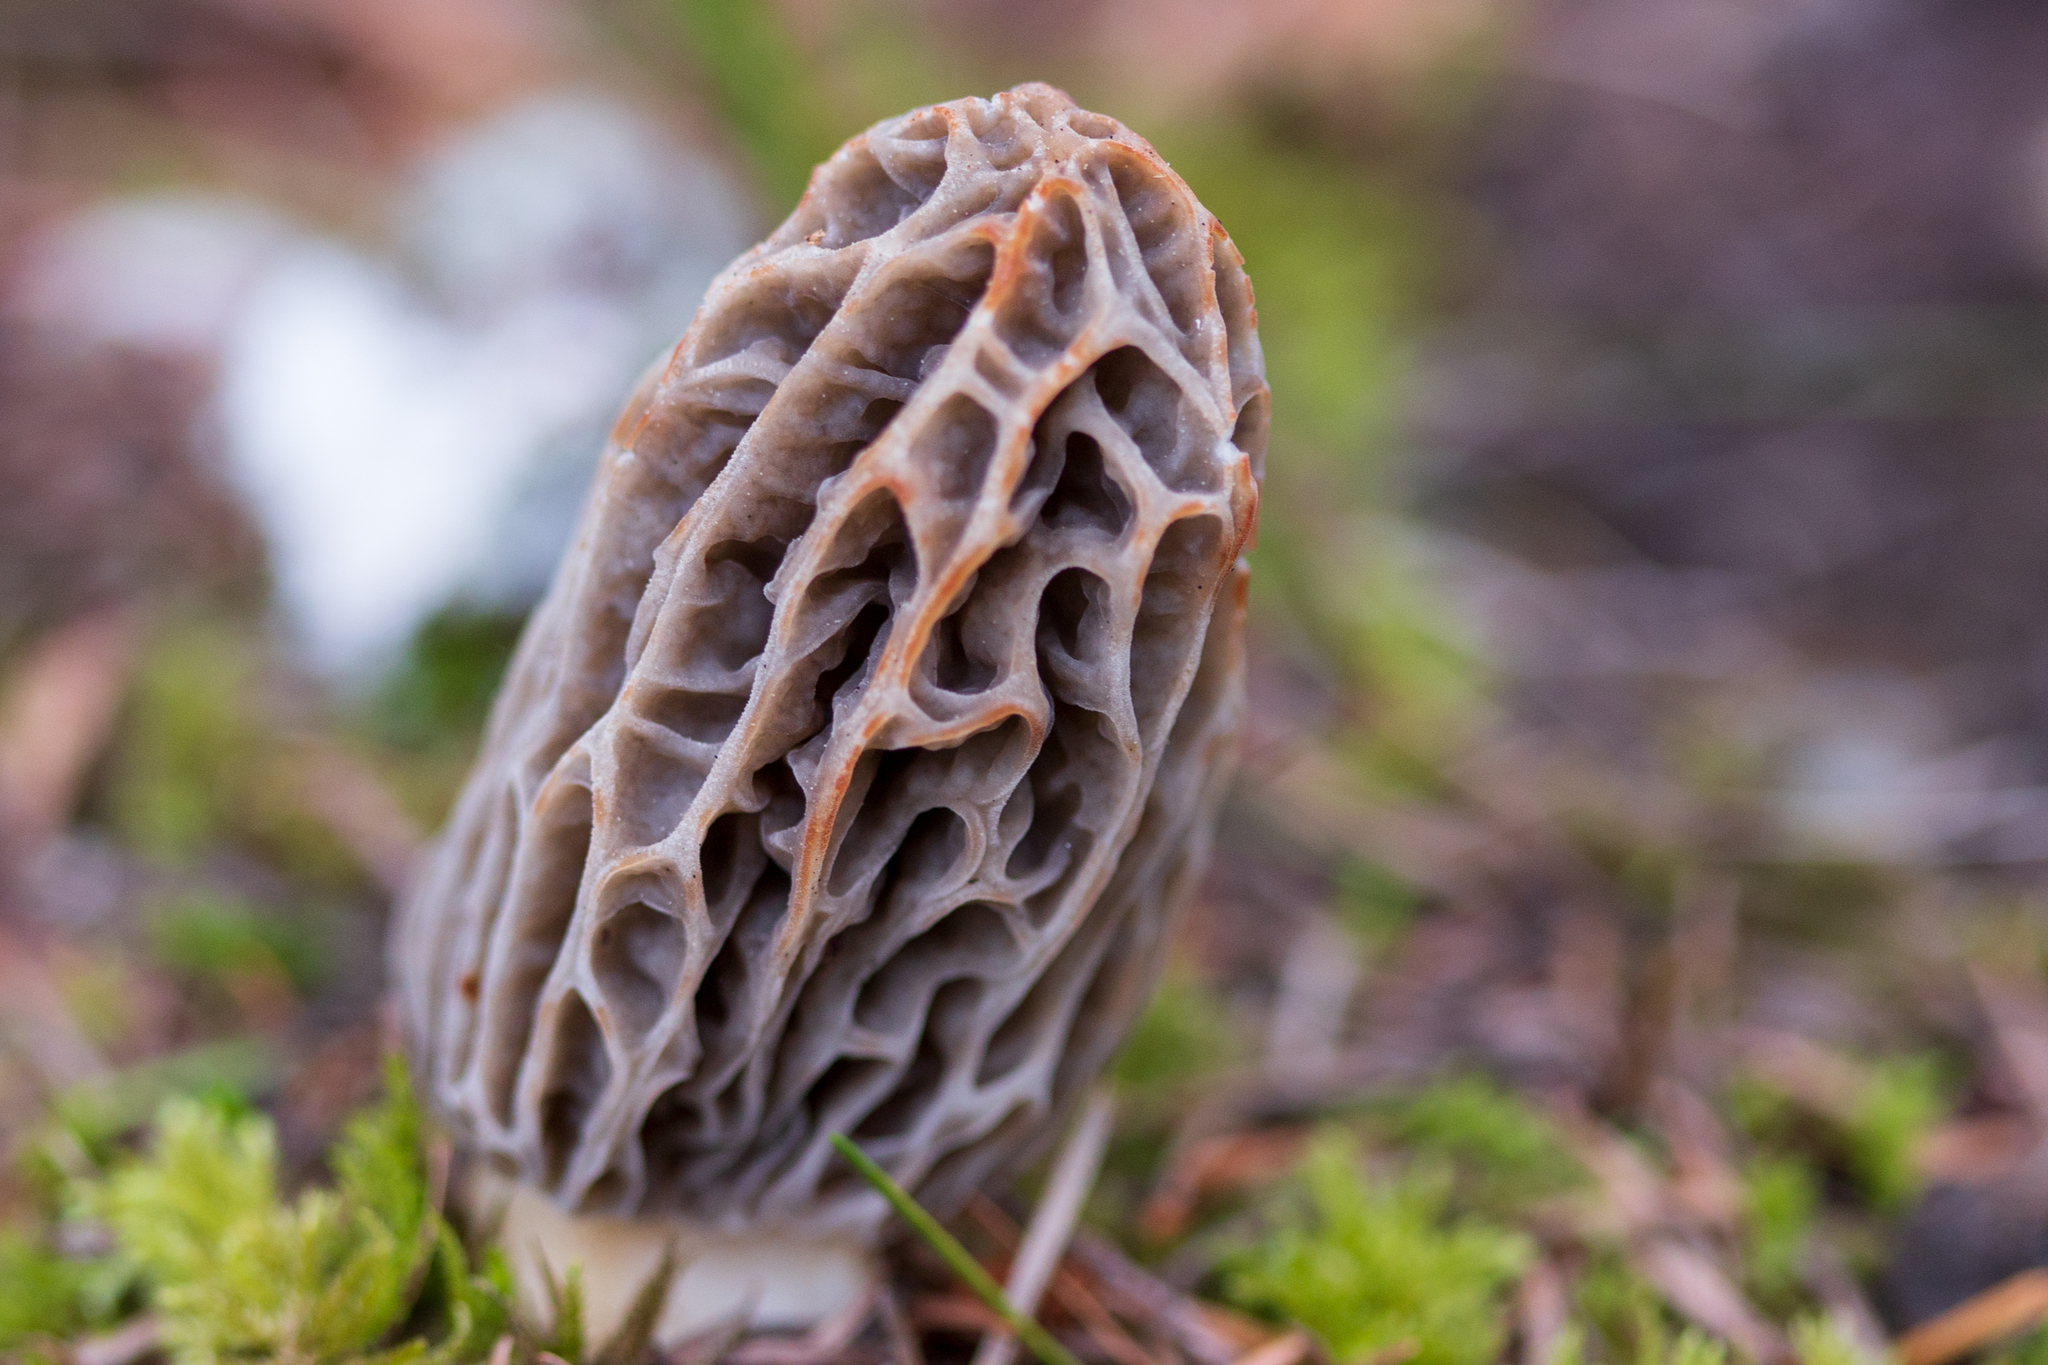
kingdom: Fungi
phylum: Ascomycota
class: Pezizomycetes
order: Pezizales
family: Morchellaceae
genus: Morchella
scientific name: Morchella tridentina
